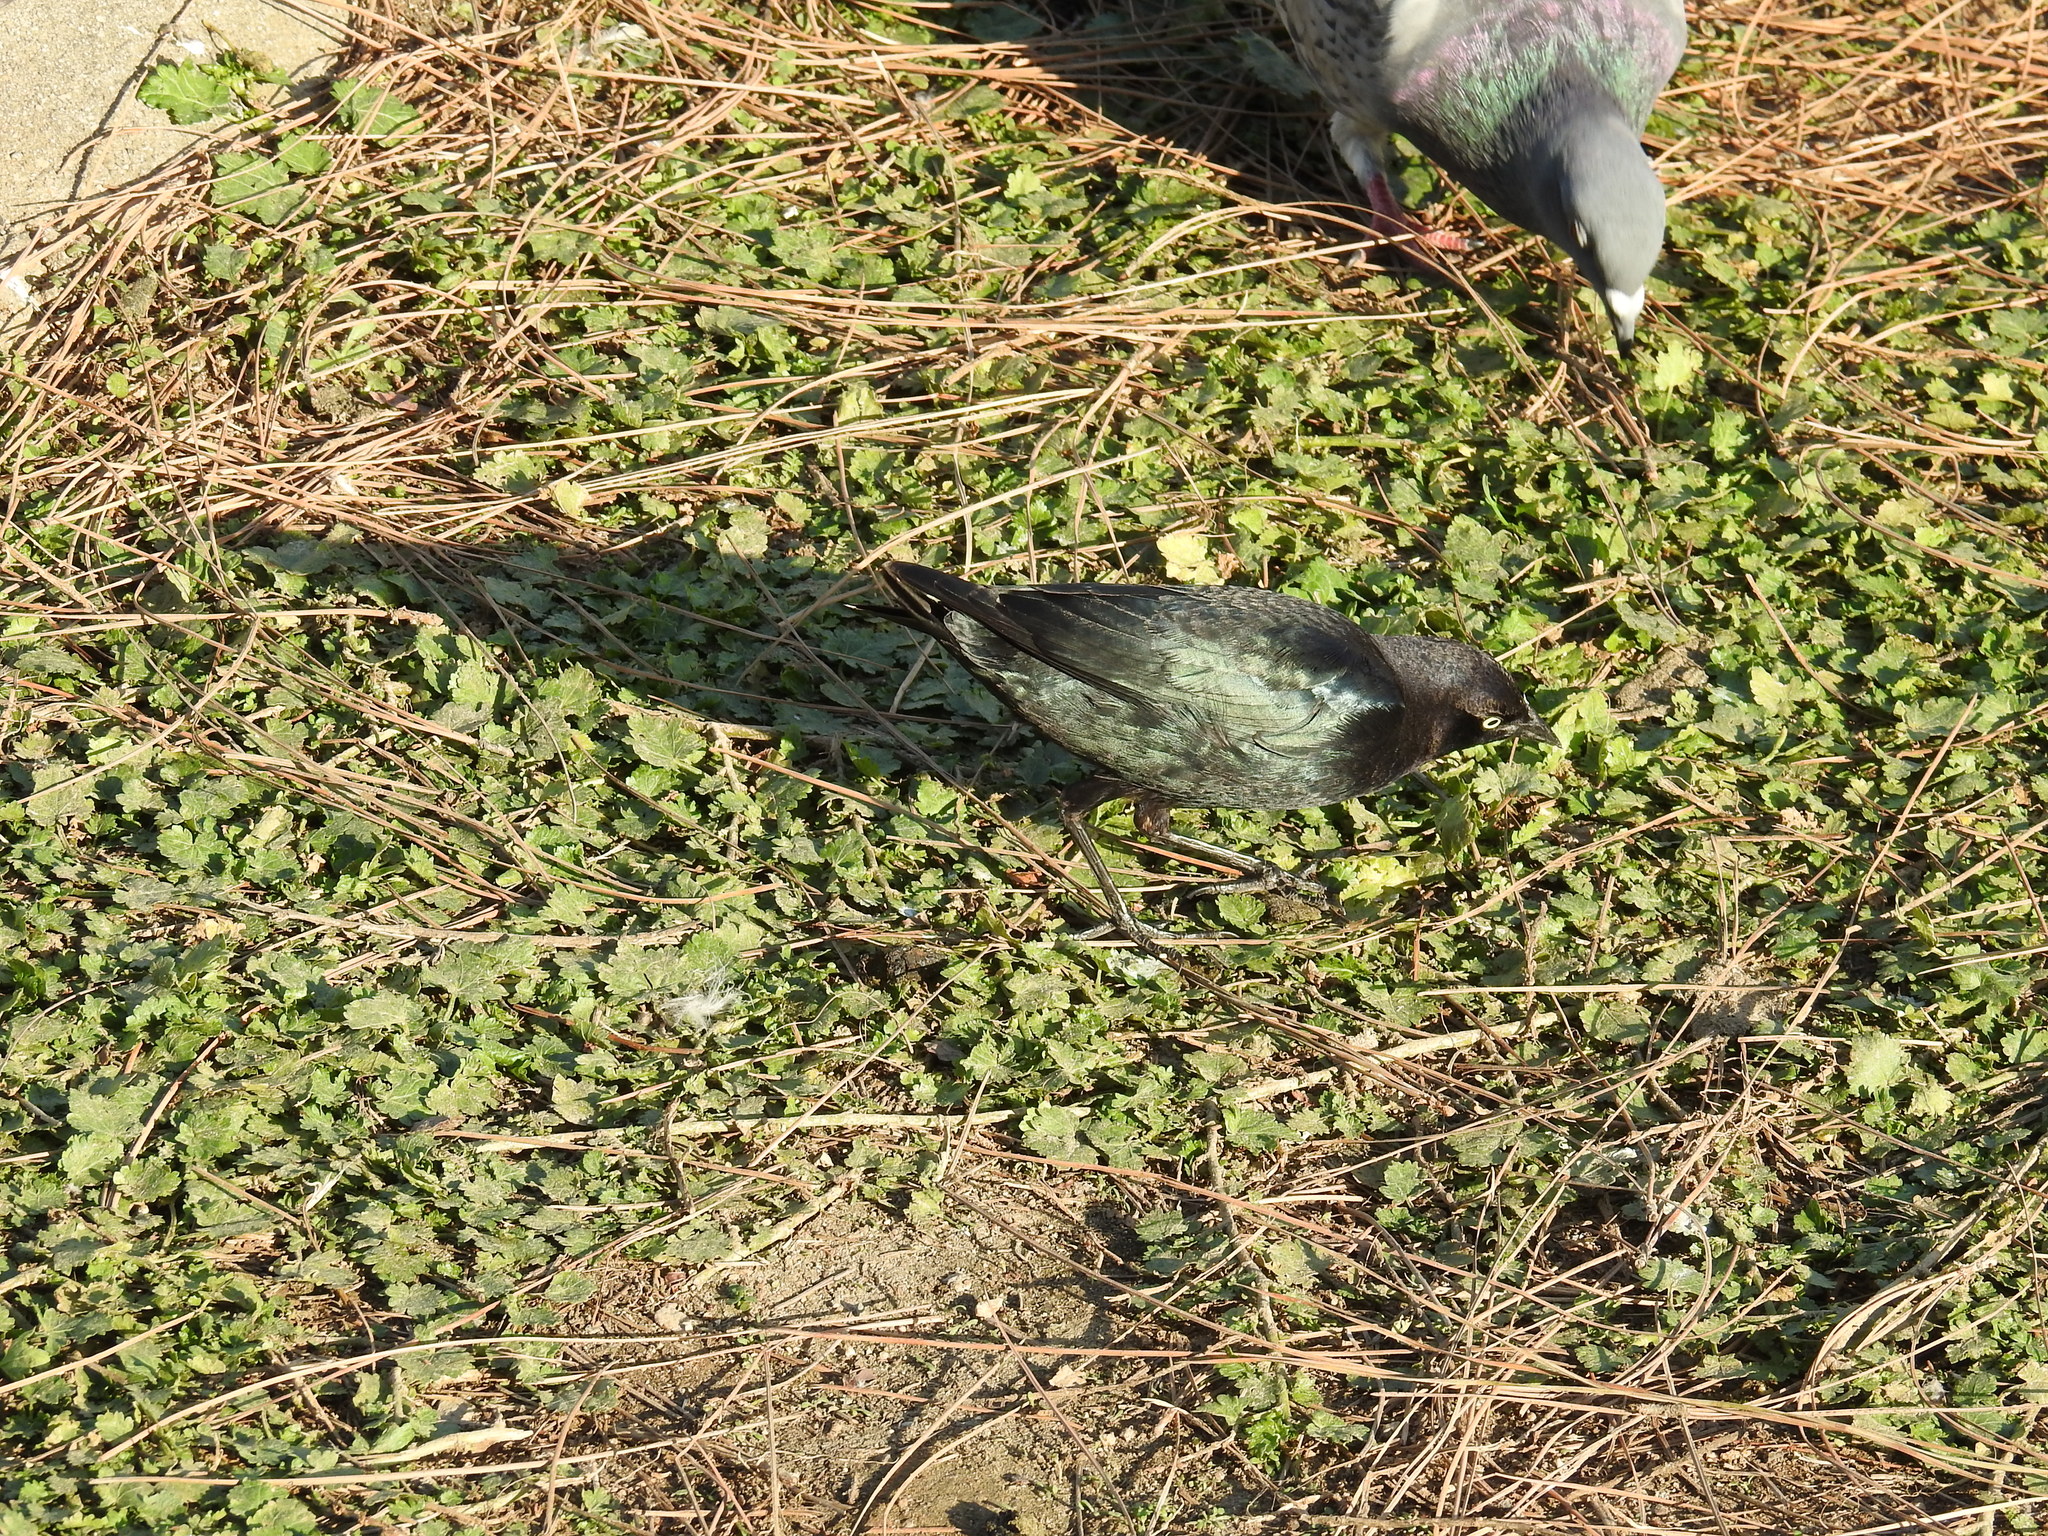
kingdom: Animalia
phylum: Chordata
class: Aves
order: Passeriformes
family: Icteridae
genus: Euphagus
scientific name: Euphagus cyanocephalus
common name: Brewer's blackbird
